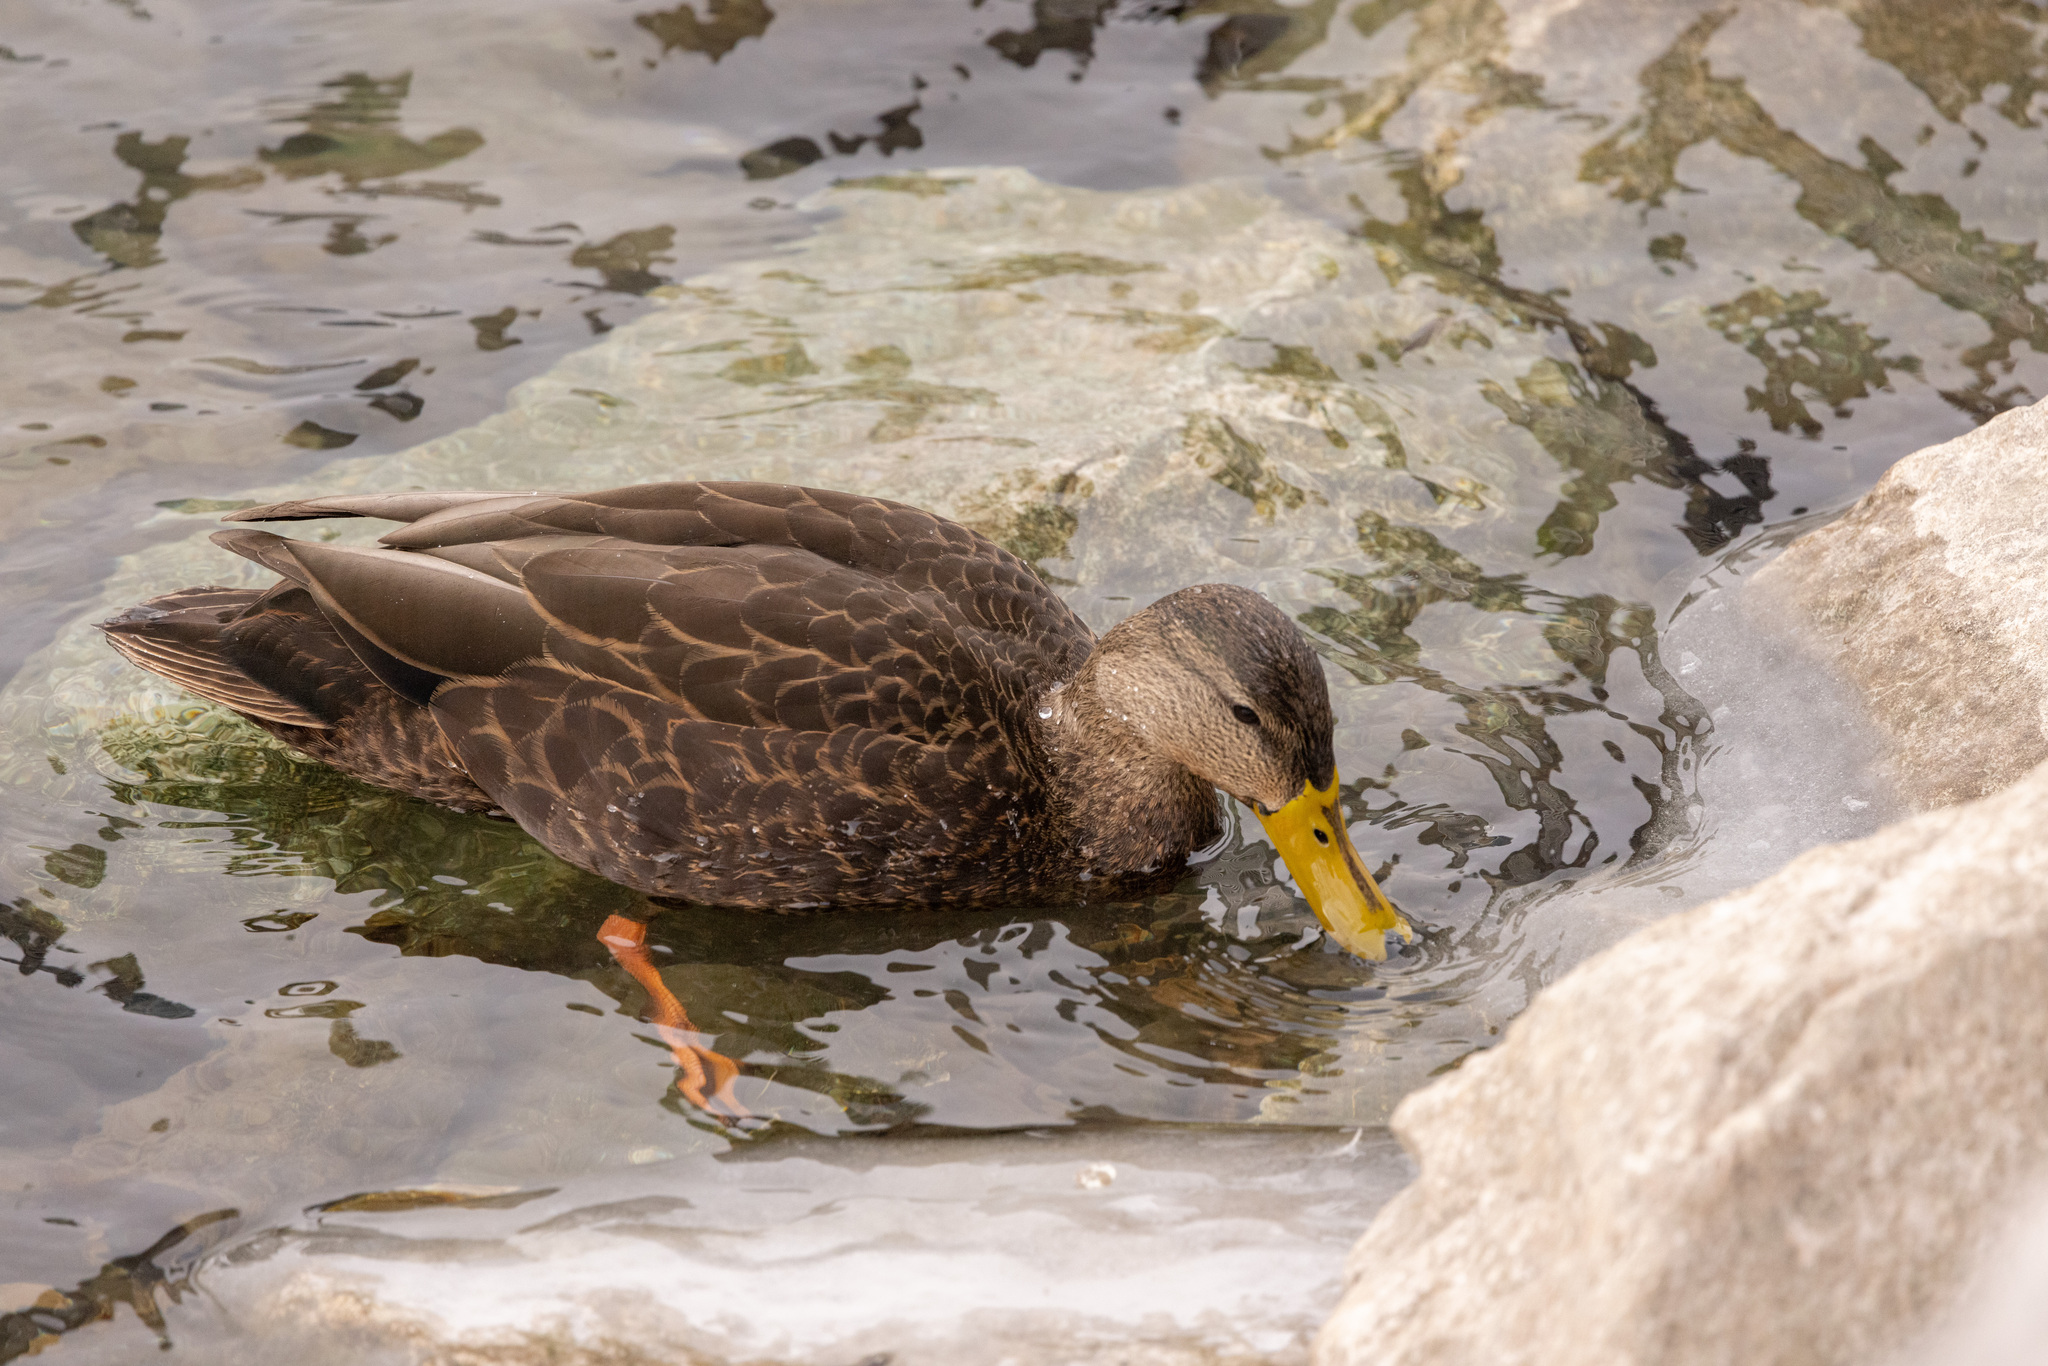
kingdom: Animalia
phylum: Chordata
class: Aves
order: Anseriformes
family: Anatidae
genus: Anas
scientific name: Anas rubripes
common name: American black duck
